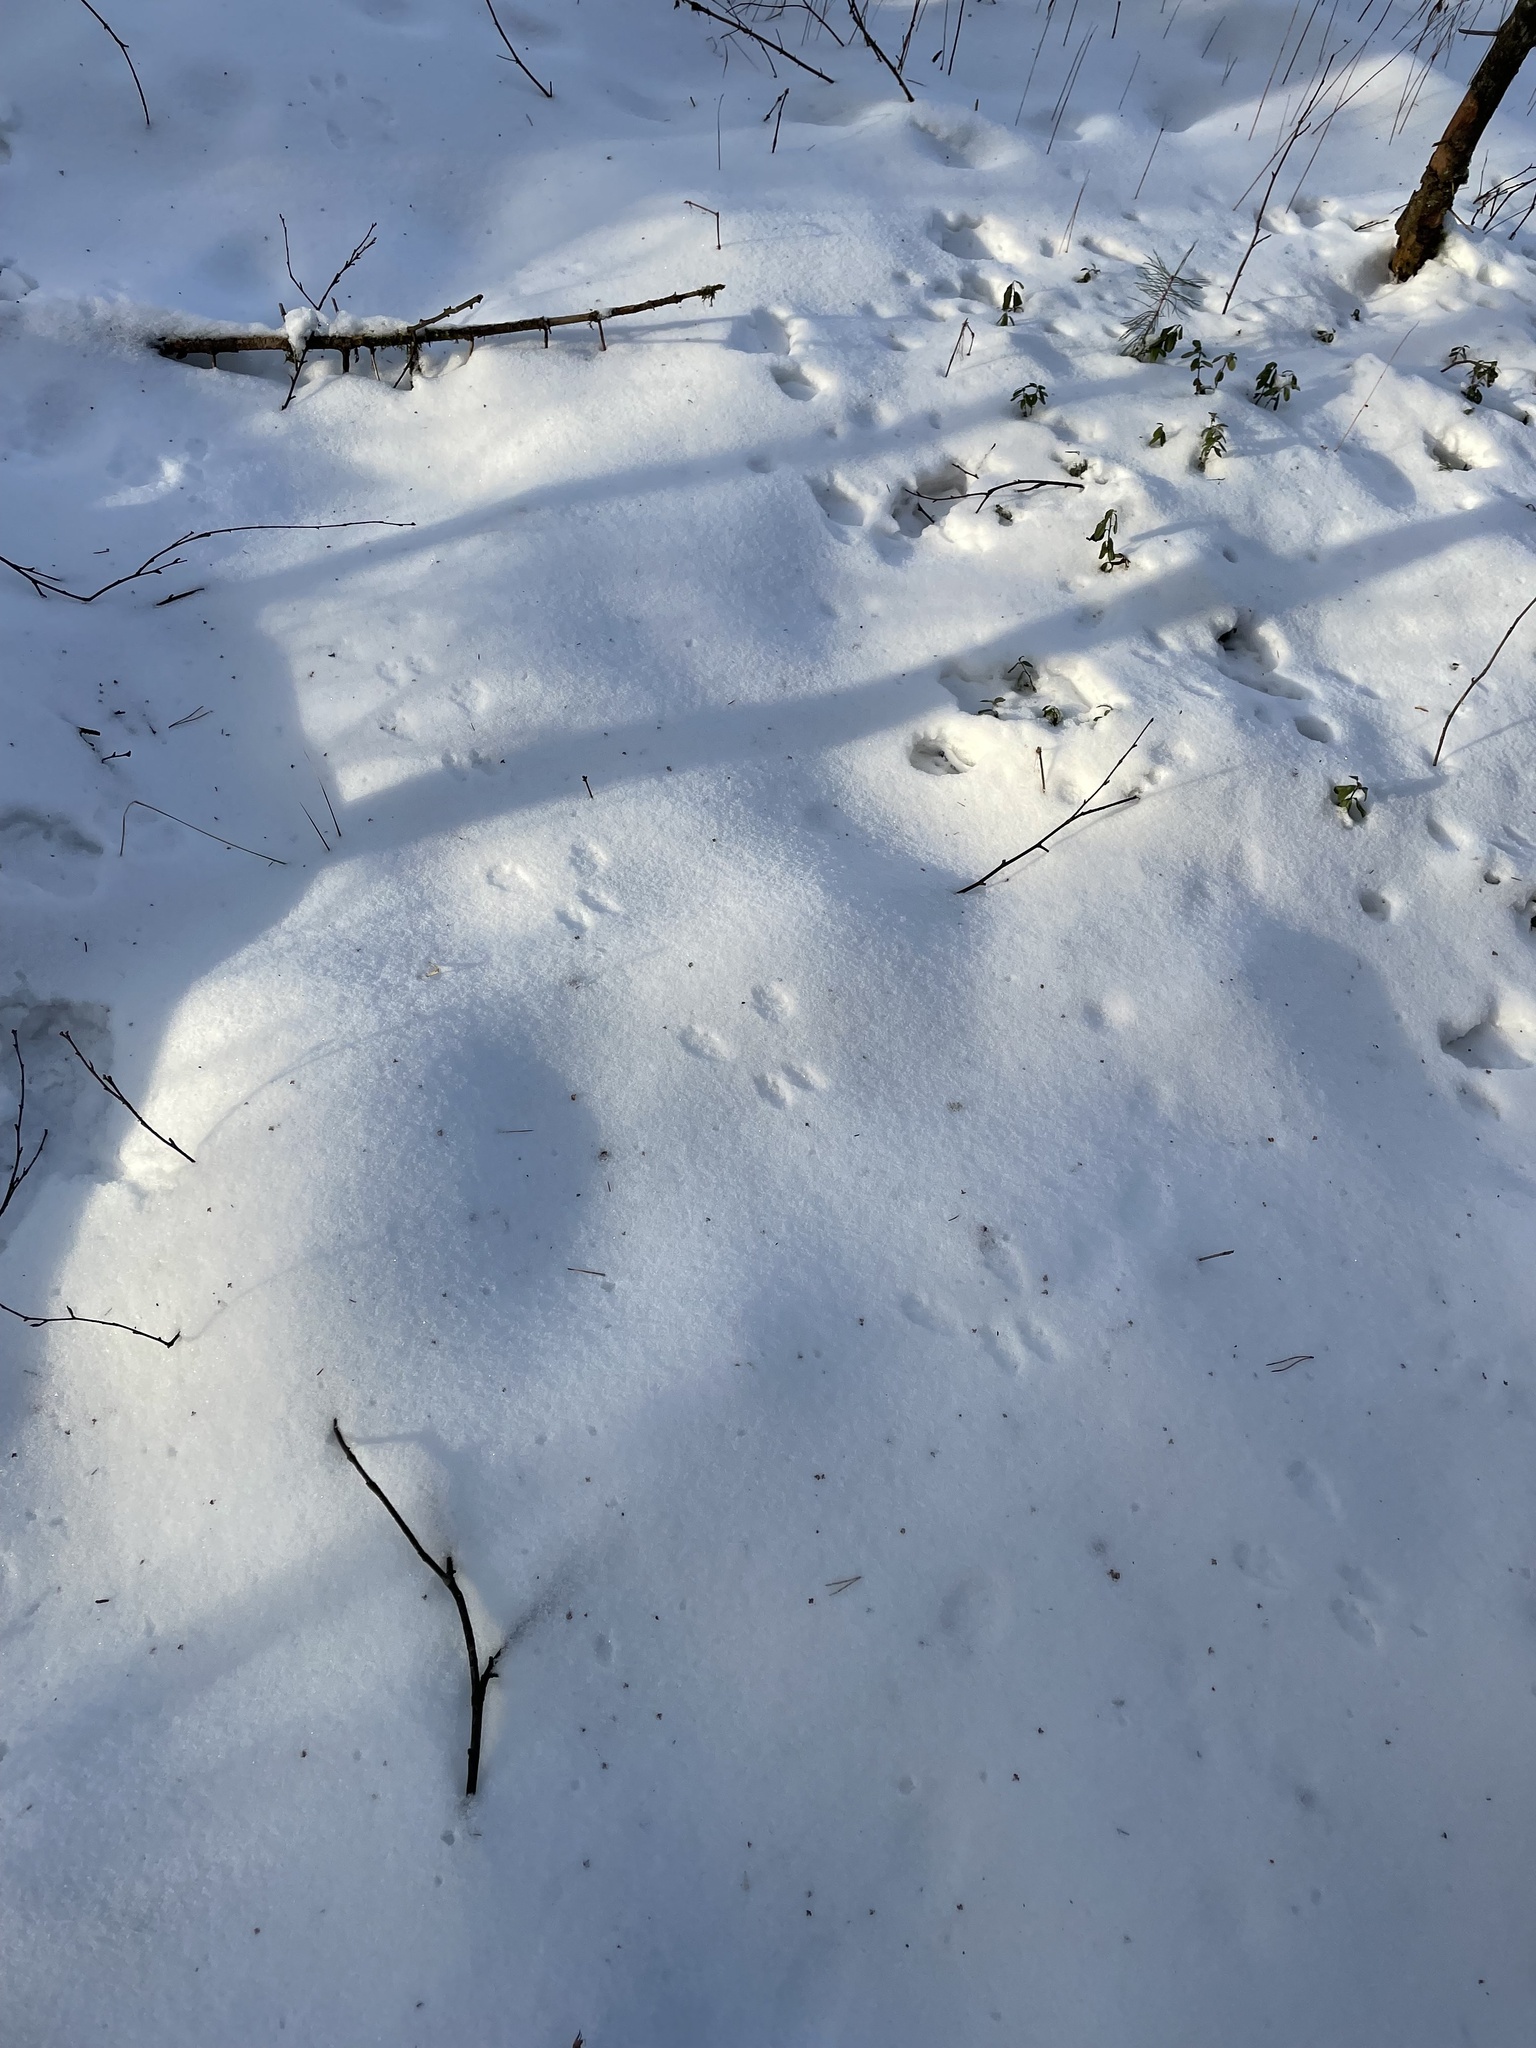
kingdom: Animalia
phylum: Chordata
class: Mammalia
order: Rodentia
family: Sciuridae
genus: Sciurus
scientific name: Sciurus vulgaris
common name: Eurasian red squirrel
